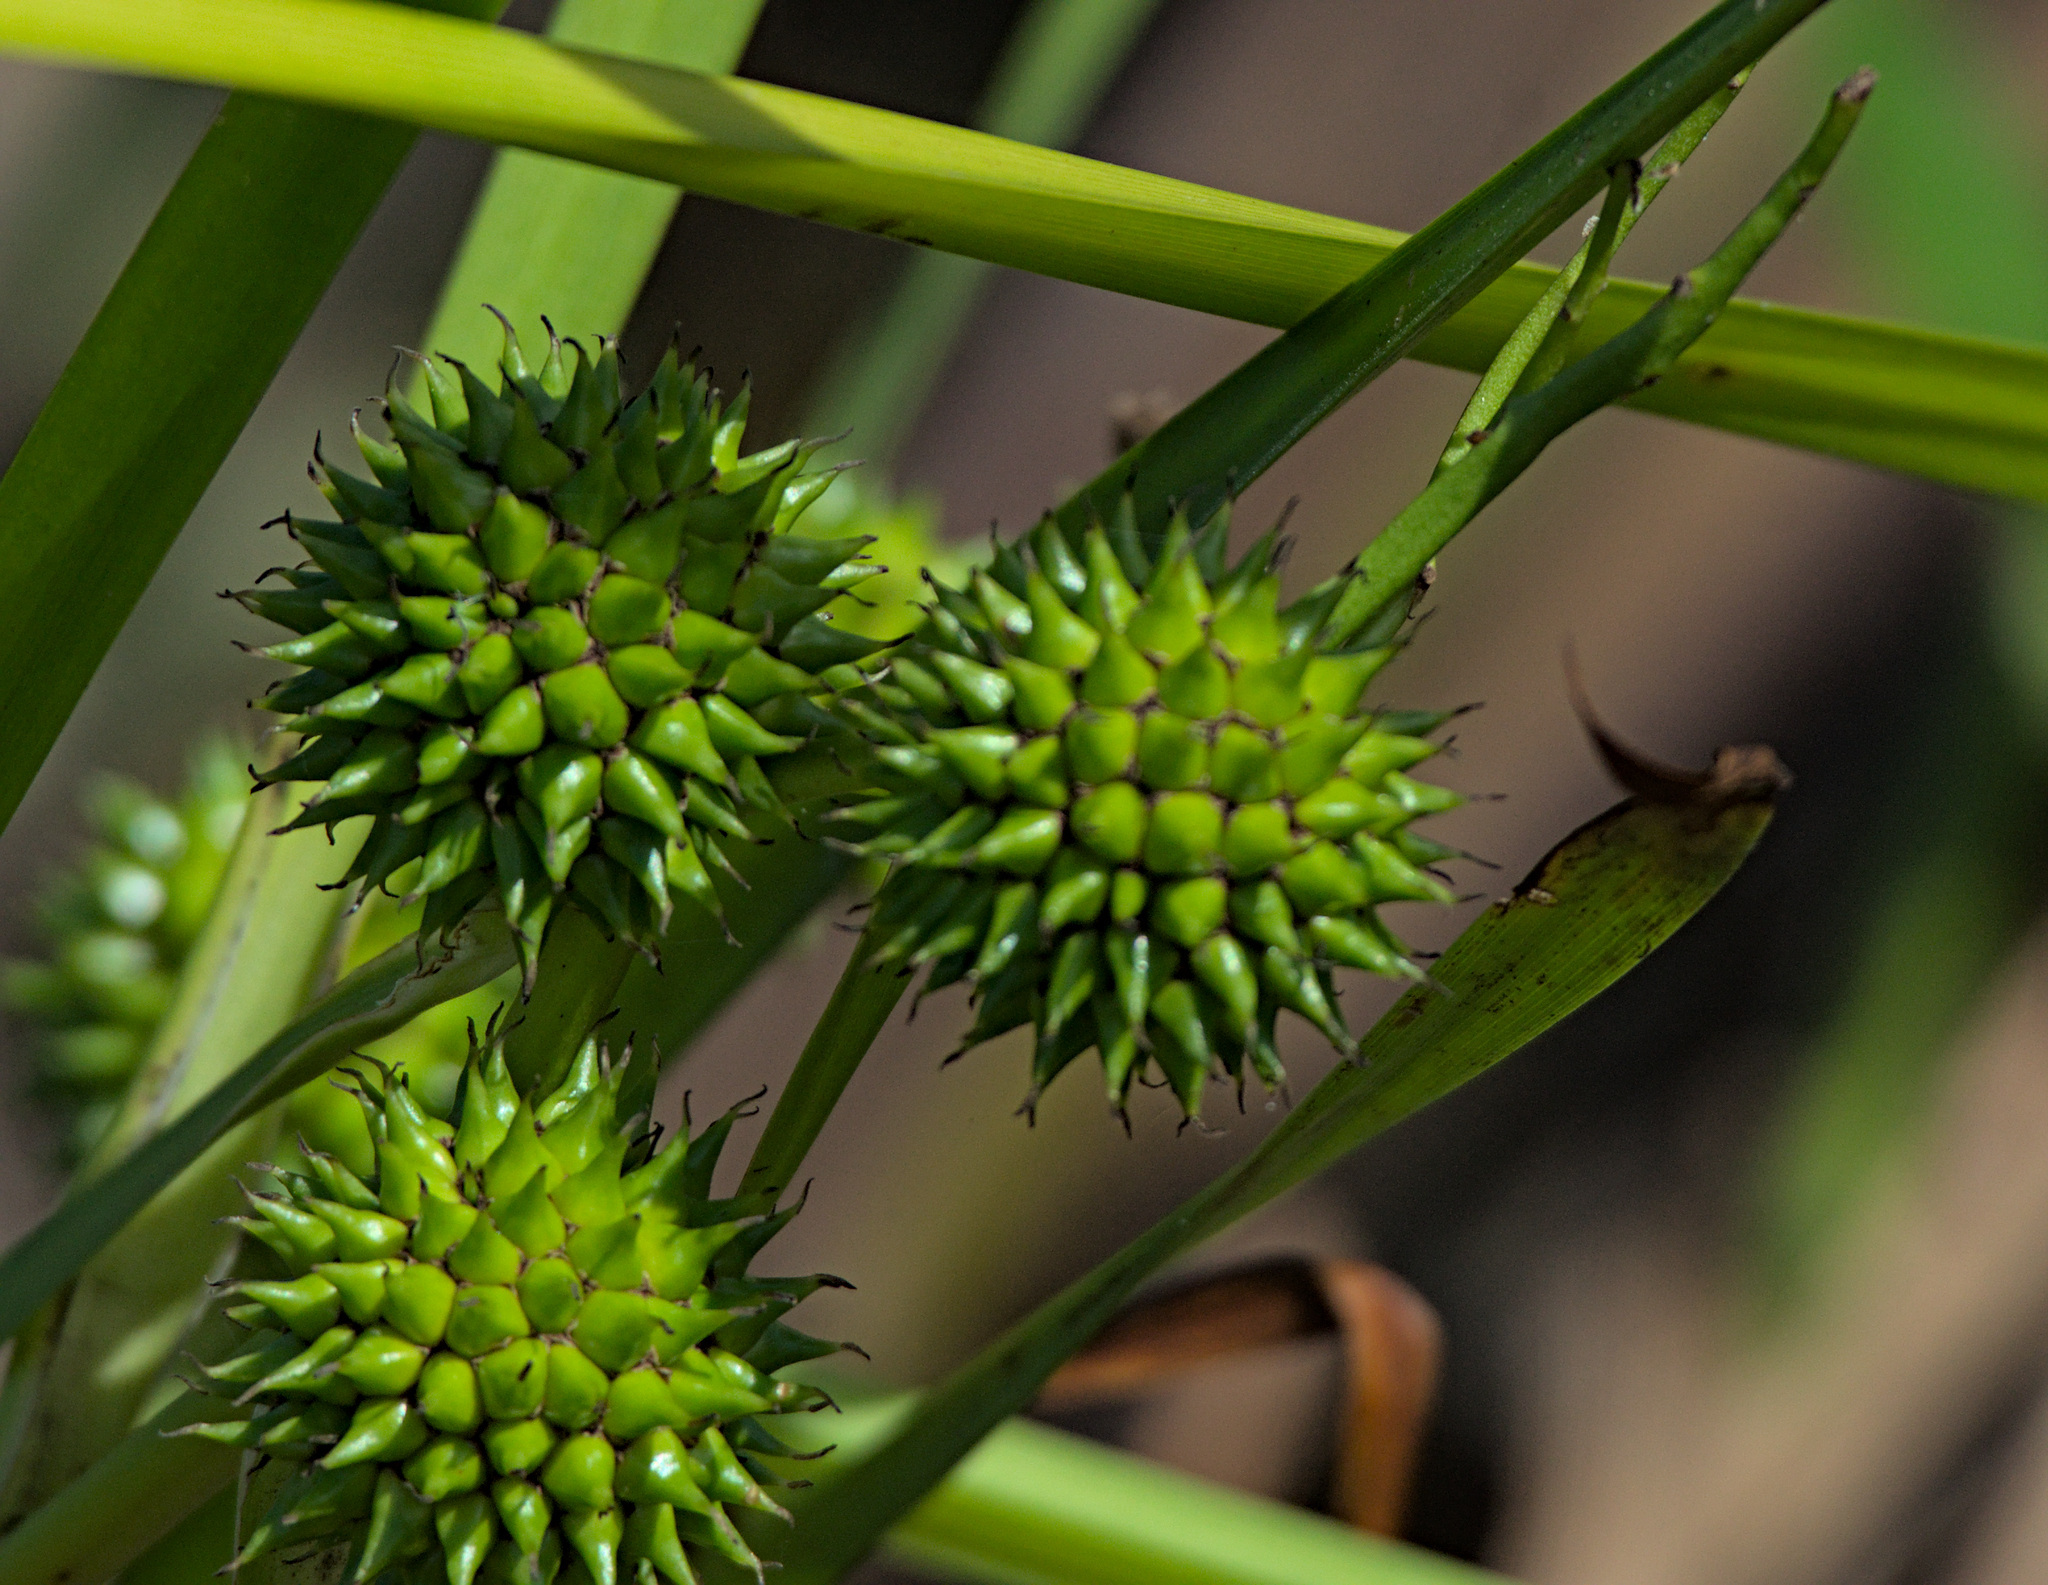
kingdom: Plantae
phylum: Tracheophyta
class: Liliopsida
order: Poales
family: Typhaceae
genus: Sparganium
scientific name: Sparganium erectum
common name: Branched bur-reed
